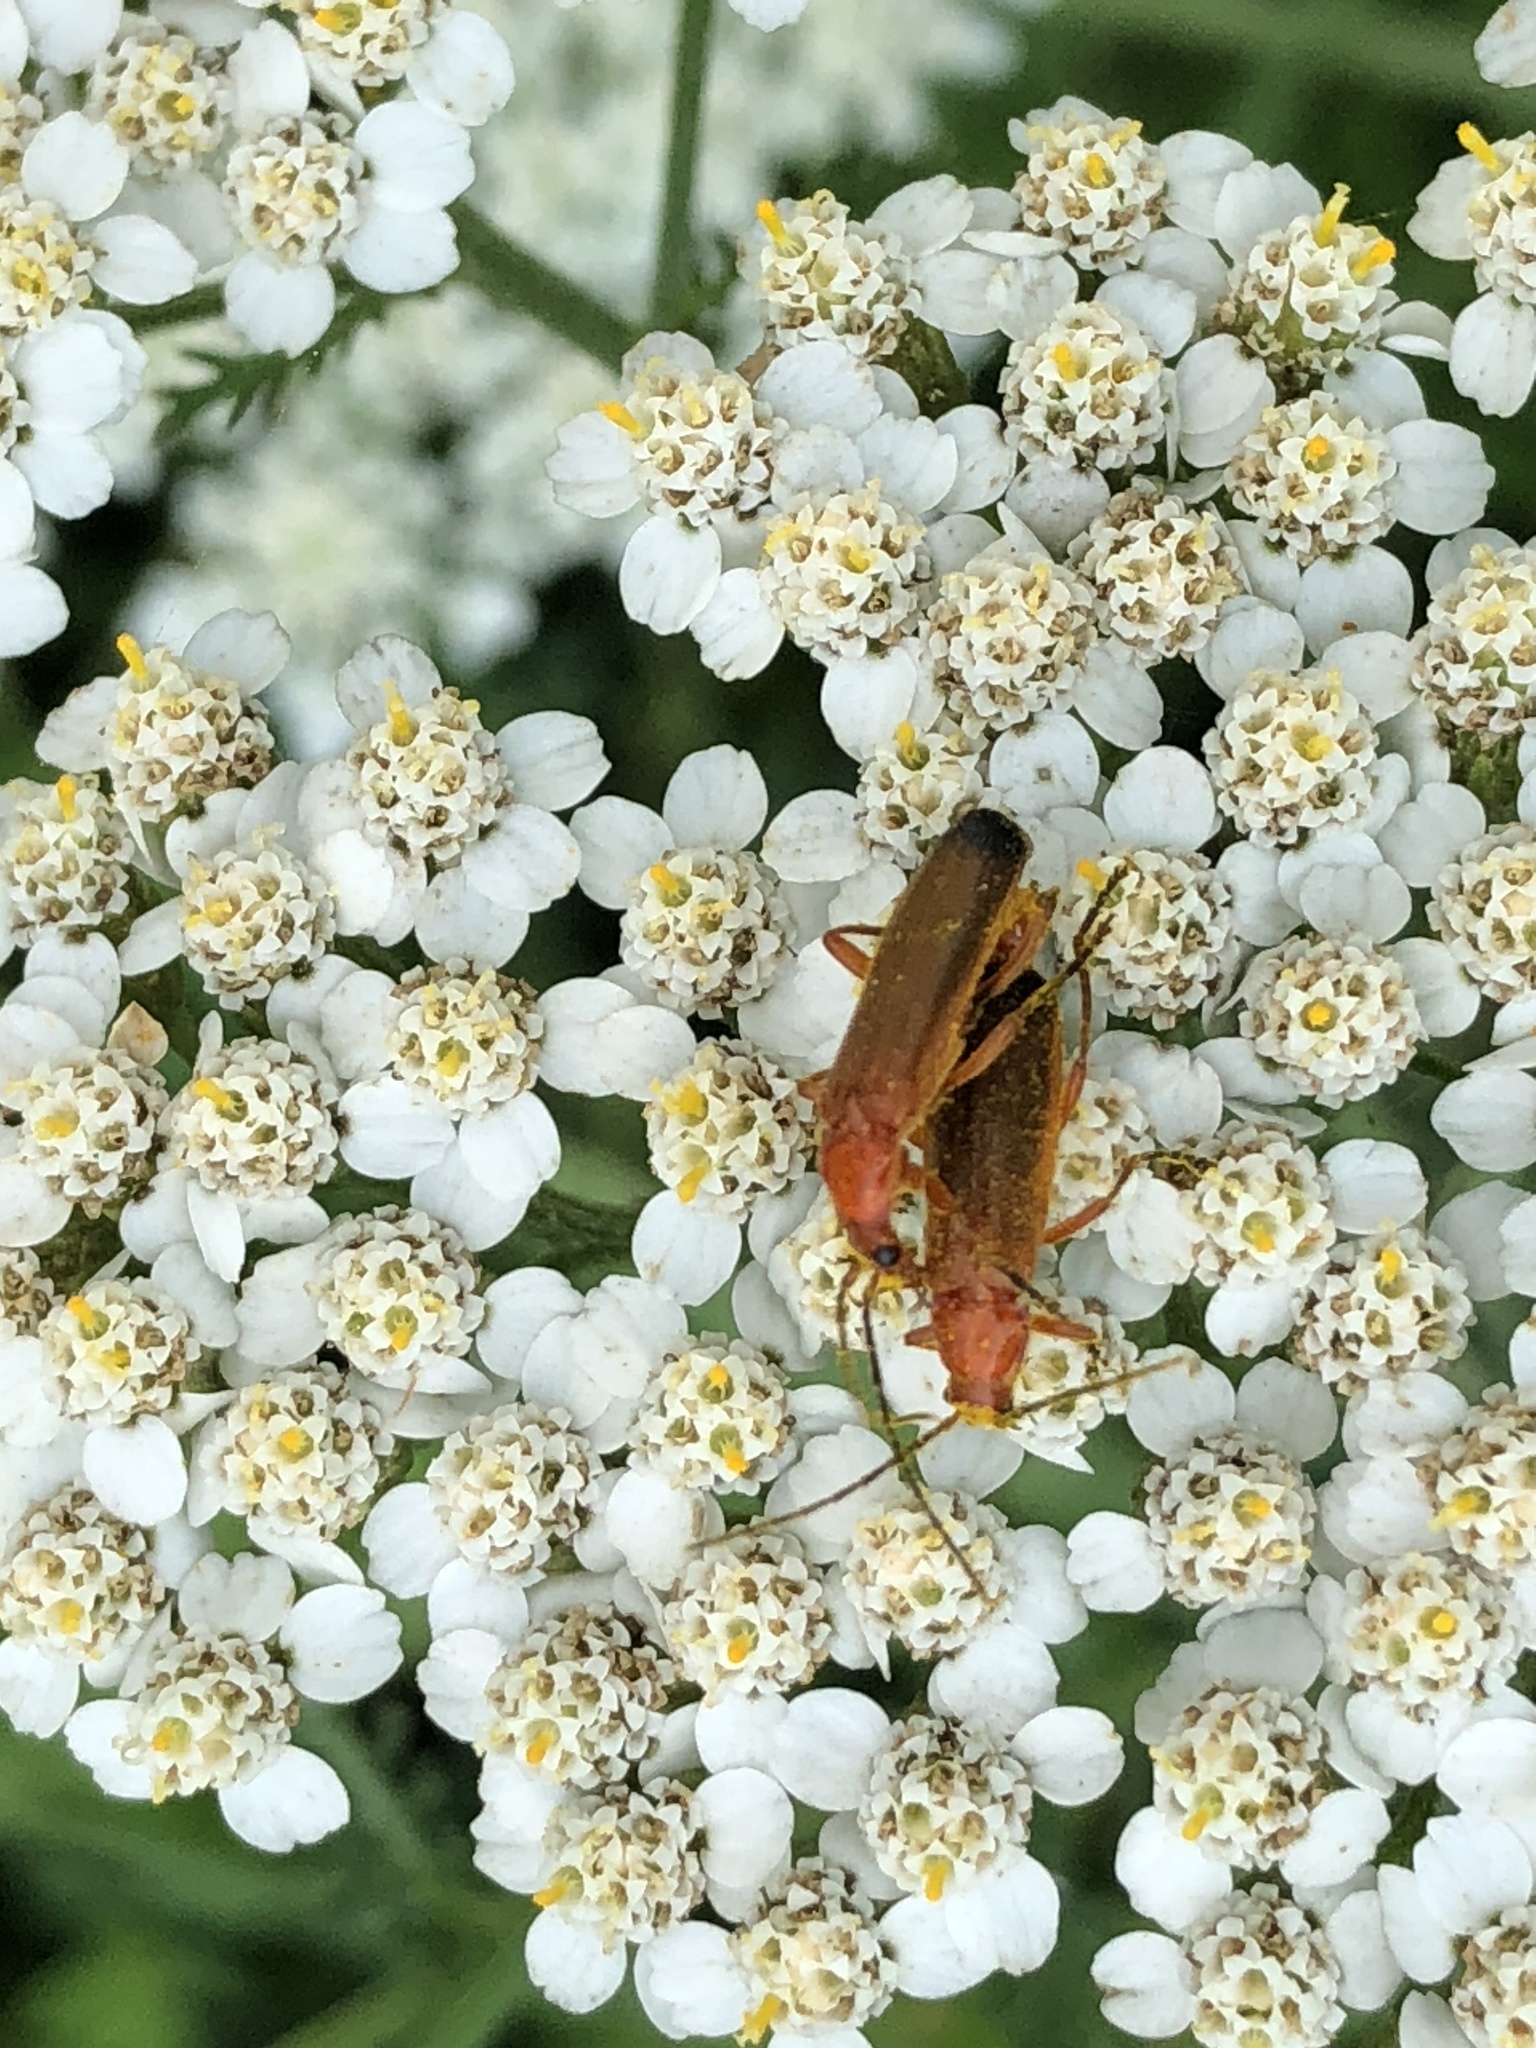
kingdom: Animalia
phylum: Arthropoda
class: Insecta
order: Coleoptera
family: Cantharidae
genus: Rhagonycha
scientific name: Rhagonycha fulva
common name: Common red soldier beetle
